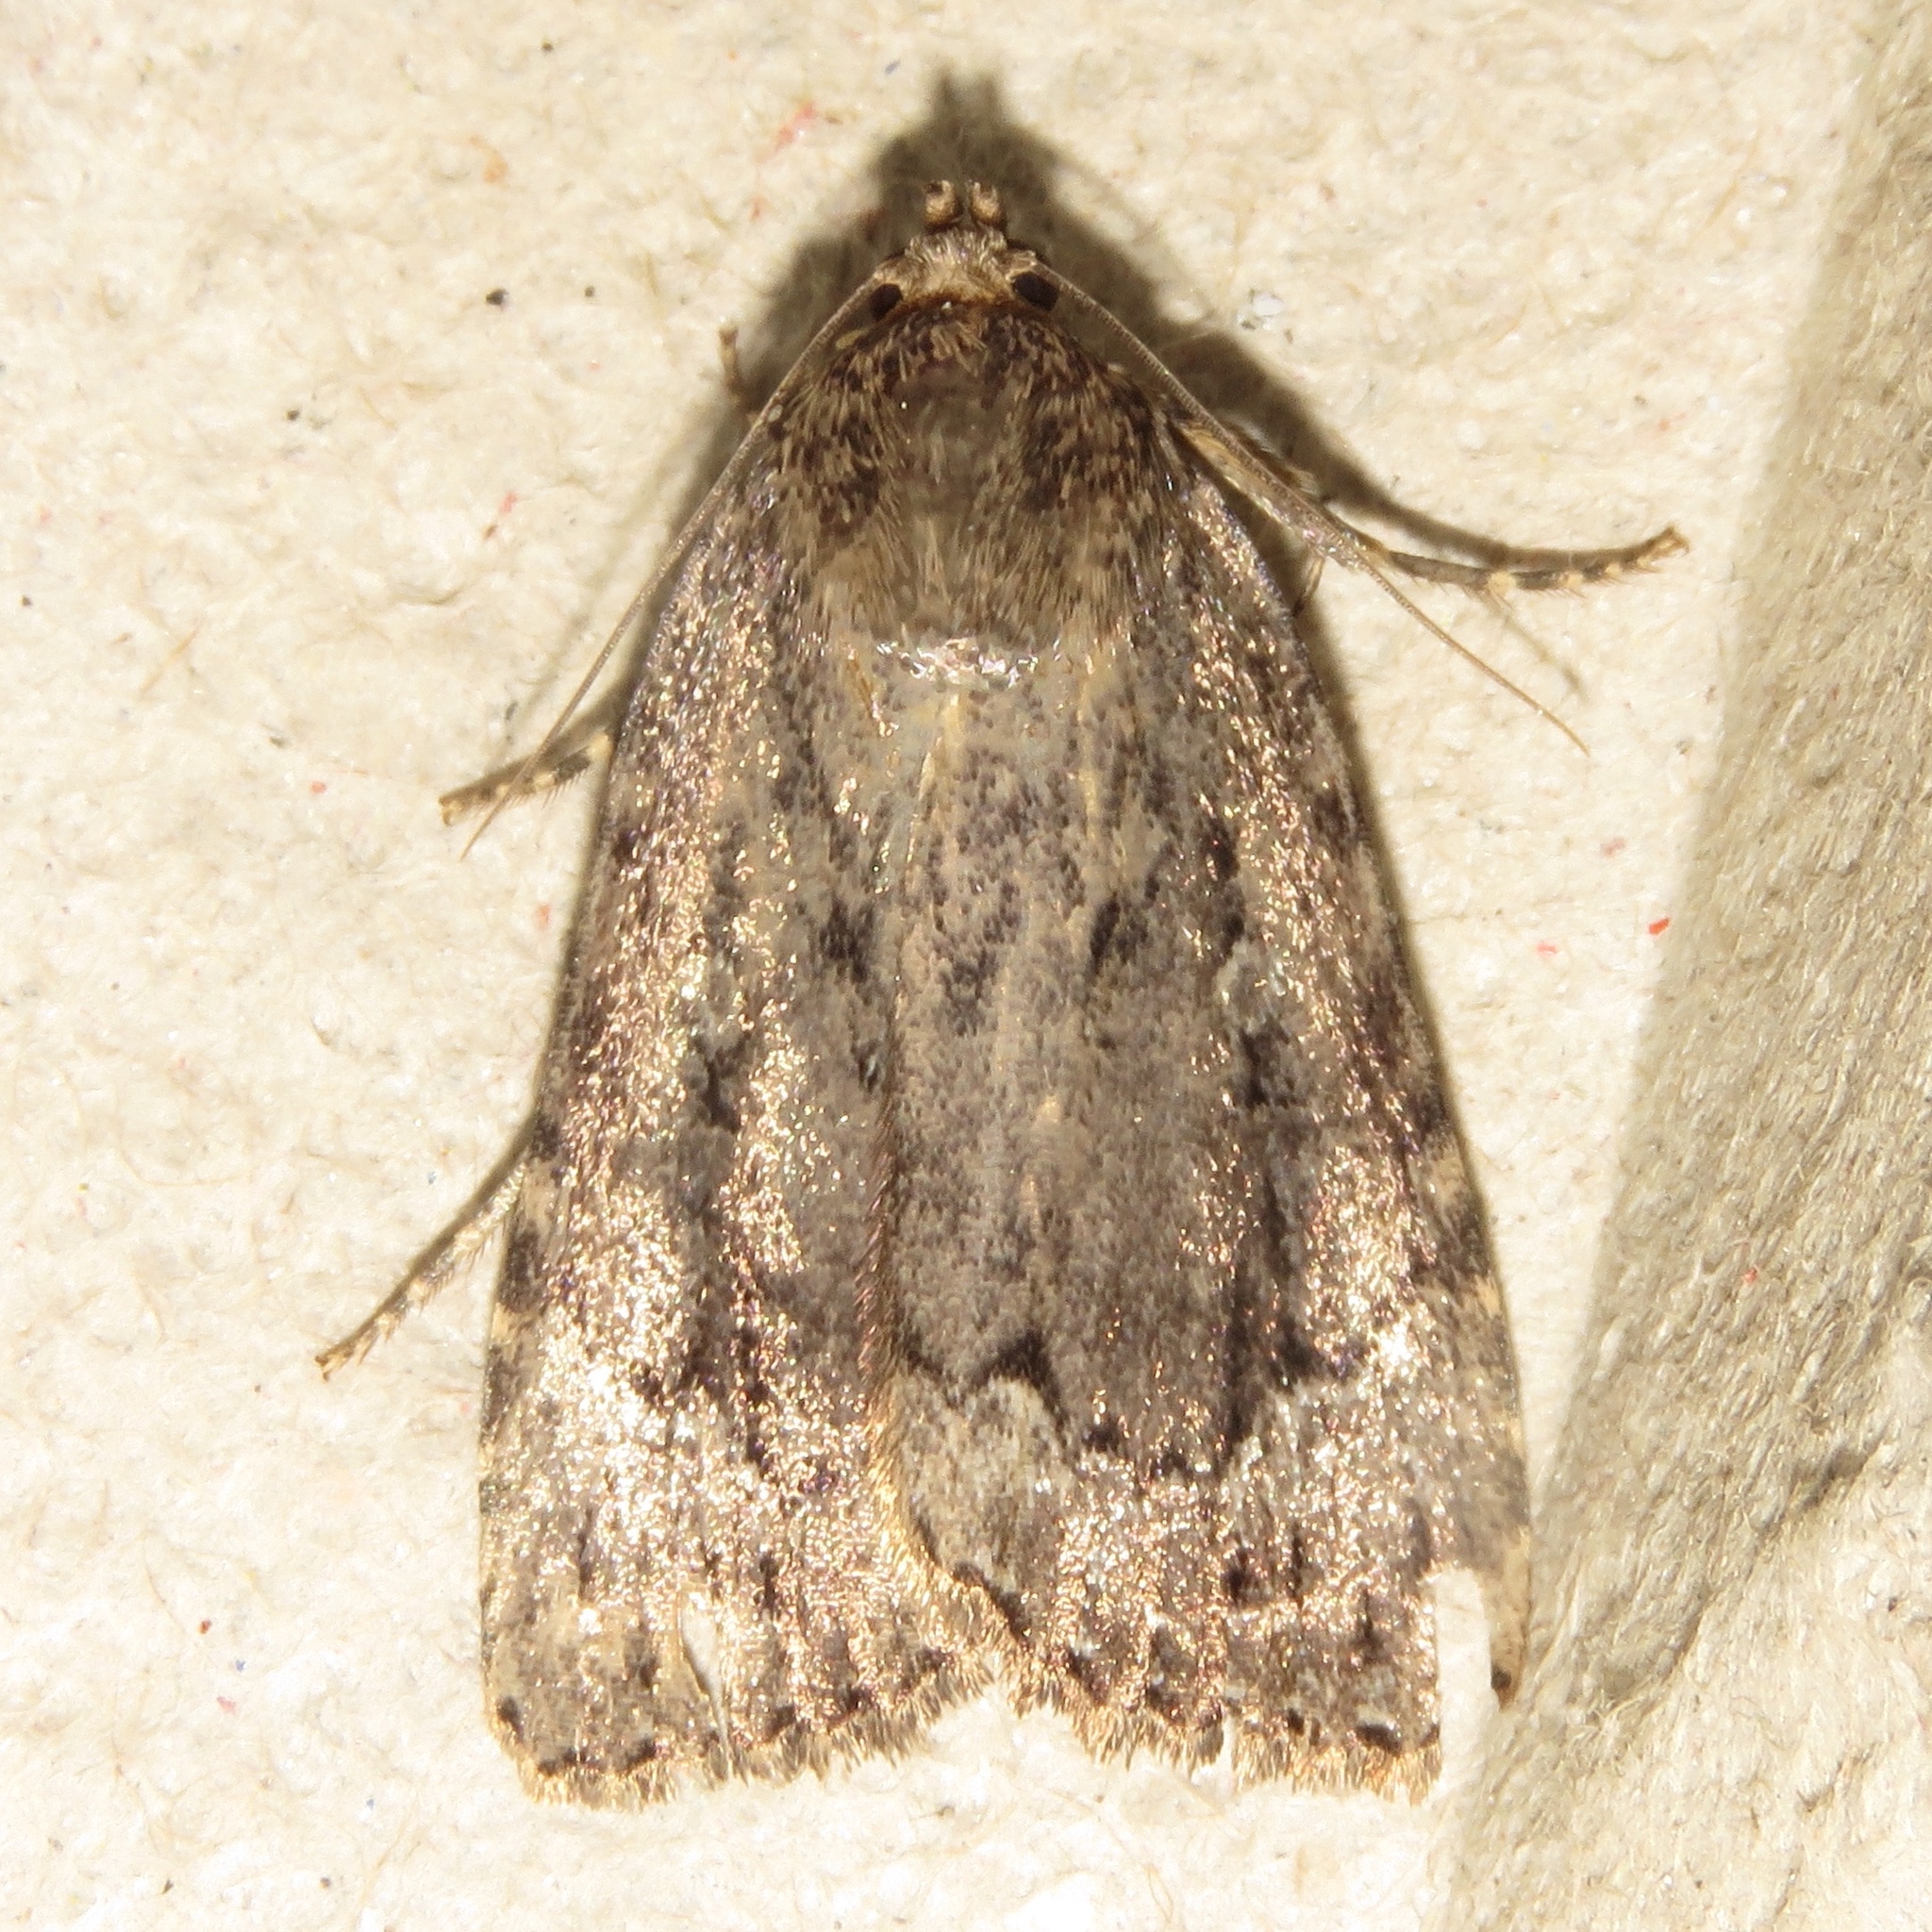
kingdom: Animalia
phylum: Arthropoda
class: Insecta
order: Lepidoptera
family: Noctuidae
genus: Amphipyra
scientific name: Amphipyra pyramidoides
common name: American copper underwing
